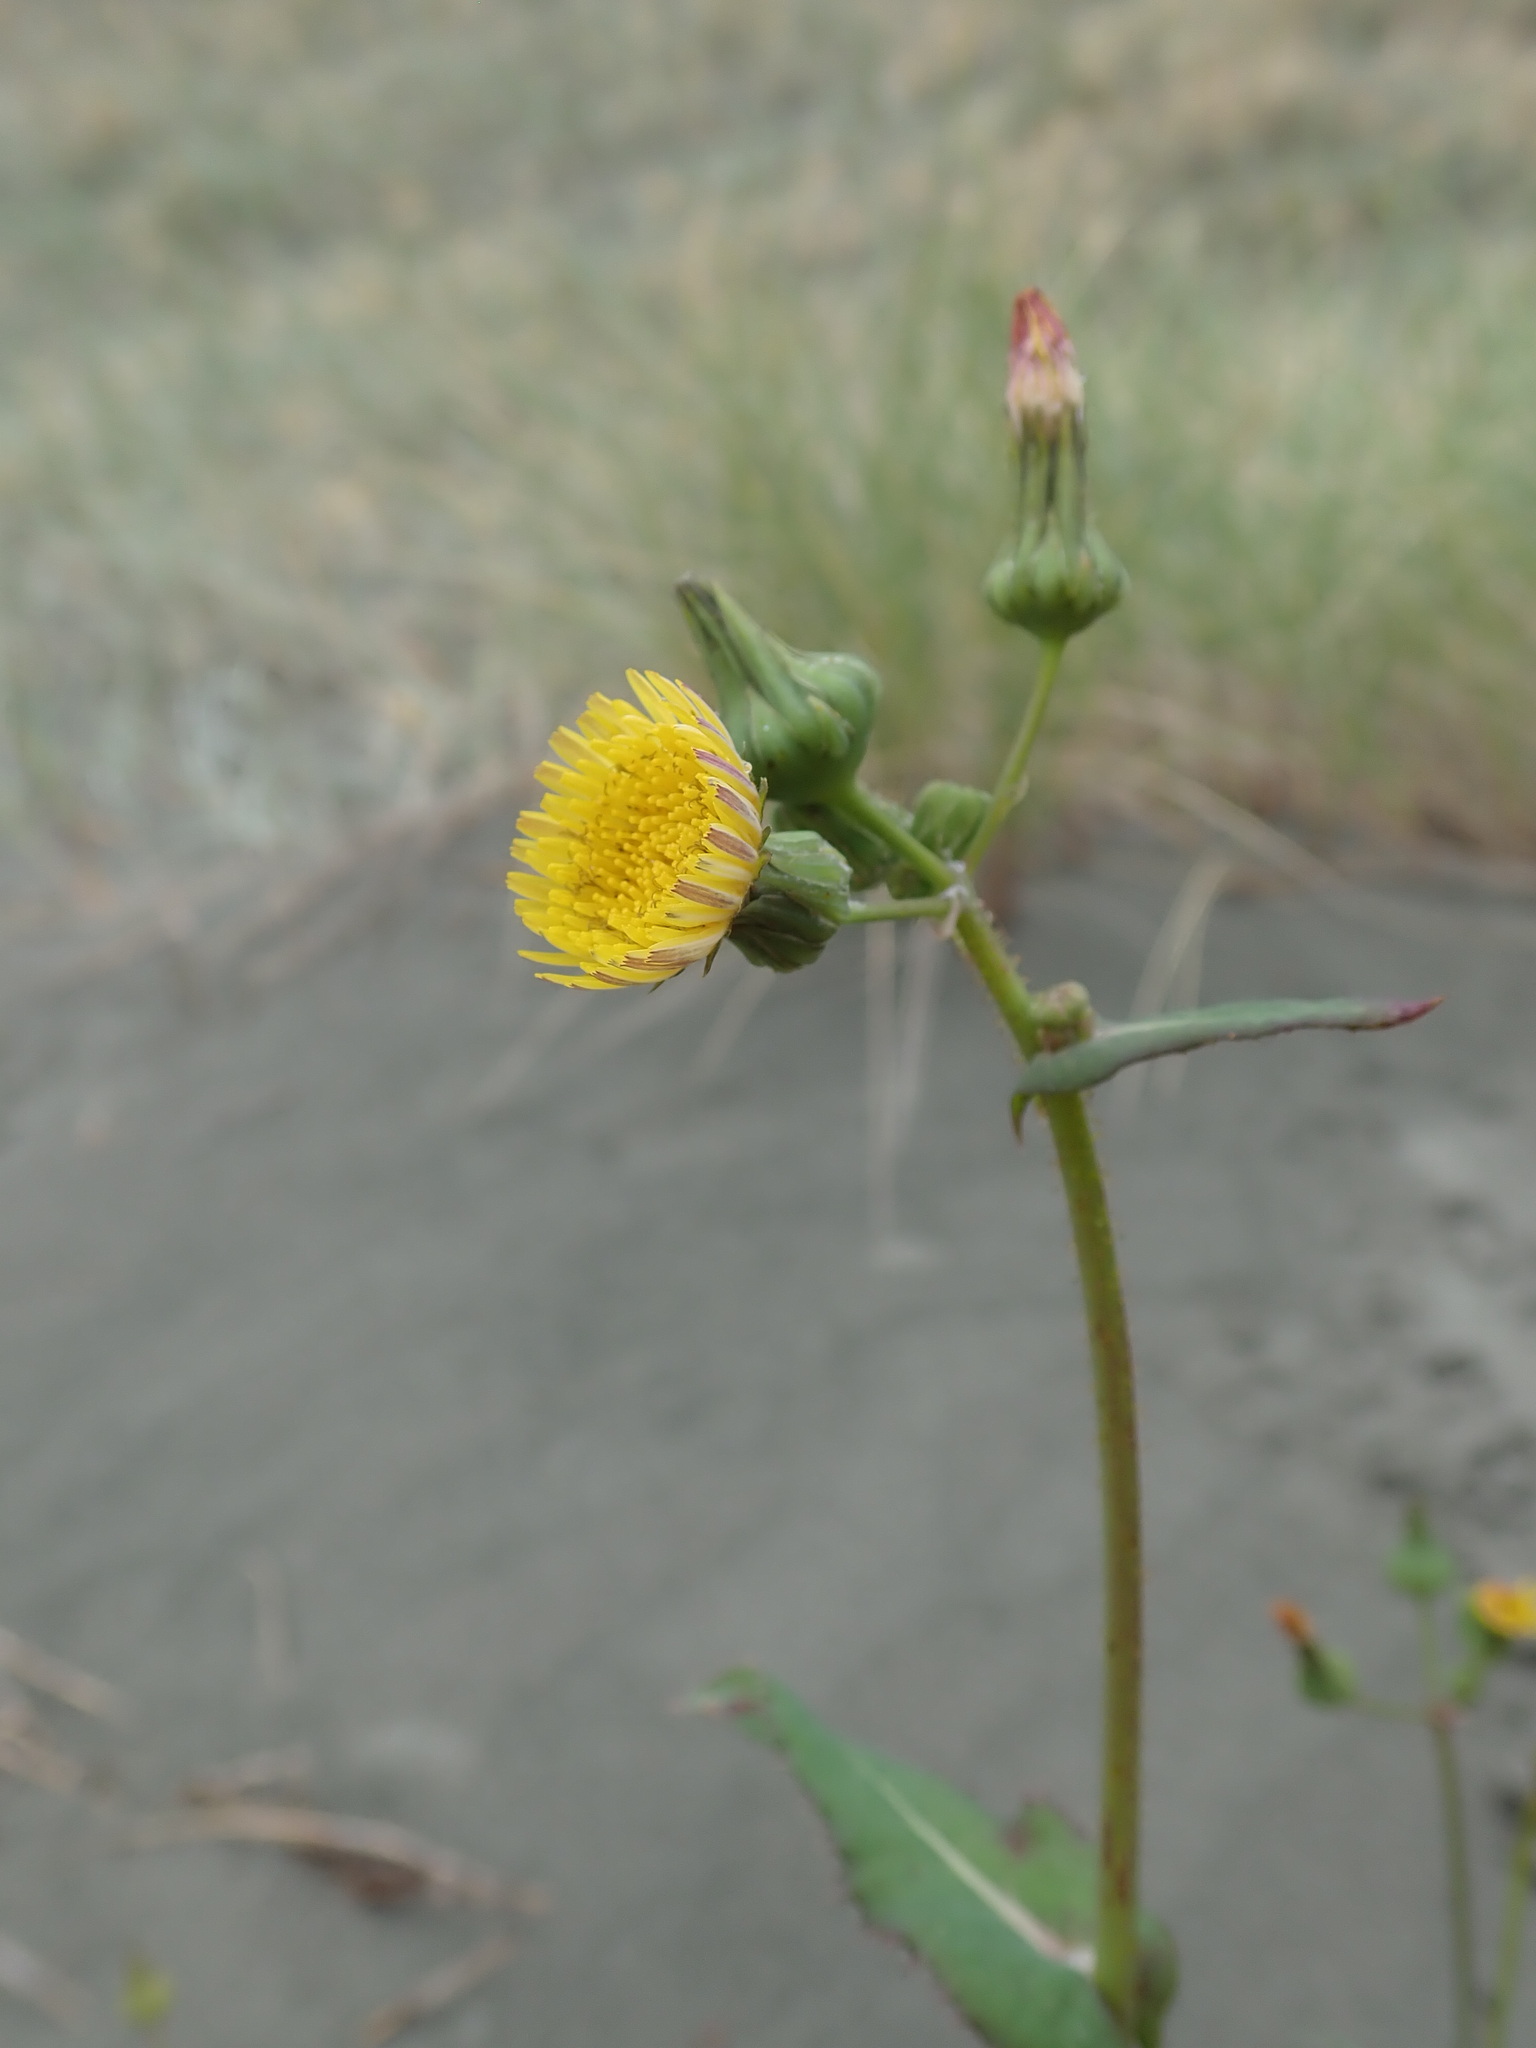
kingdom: Plantae
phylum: Tracheophyta
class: Magnoliopsida
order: Asterales
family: Asteraceae
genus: Sonchus
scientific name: Sonchus oleraceus
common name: Common sowthistle
